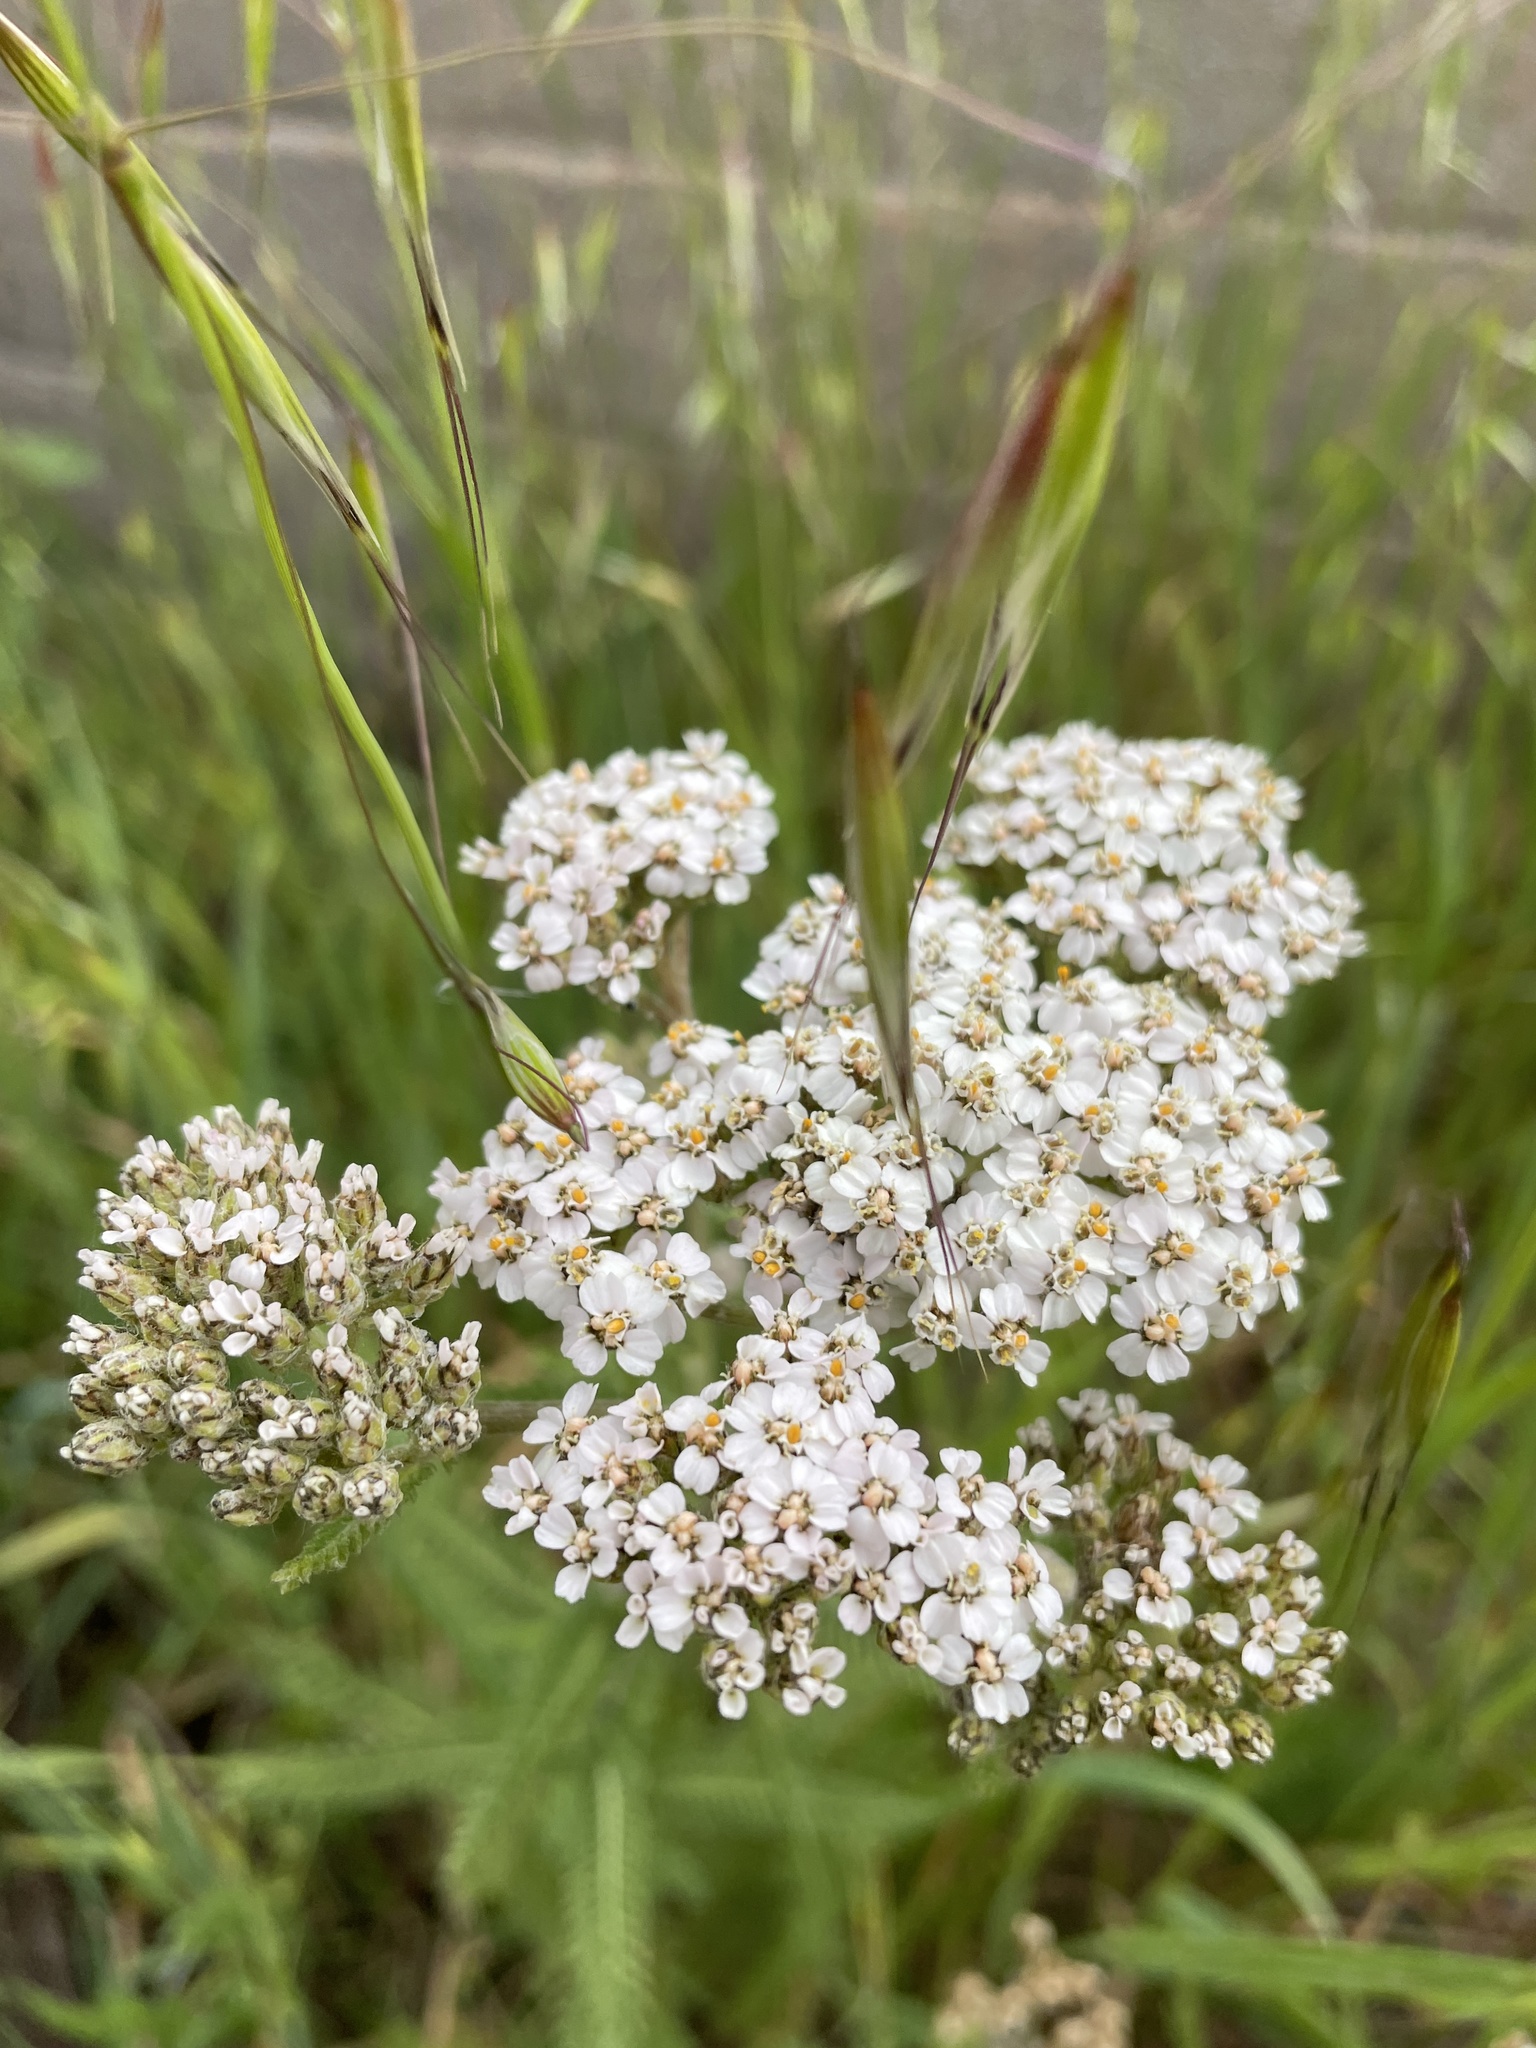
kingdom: Plantae
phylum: Tracheophyta
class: Magnoliopsida
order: Asterales
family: Asteraceae
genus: Achillea
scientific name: Achillea millefolium
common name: Yarrow
